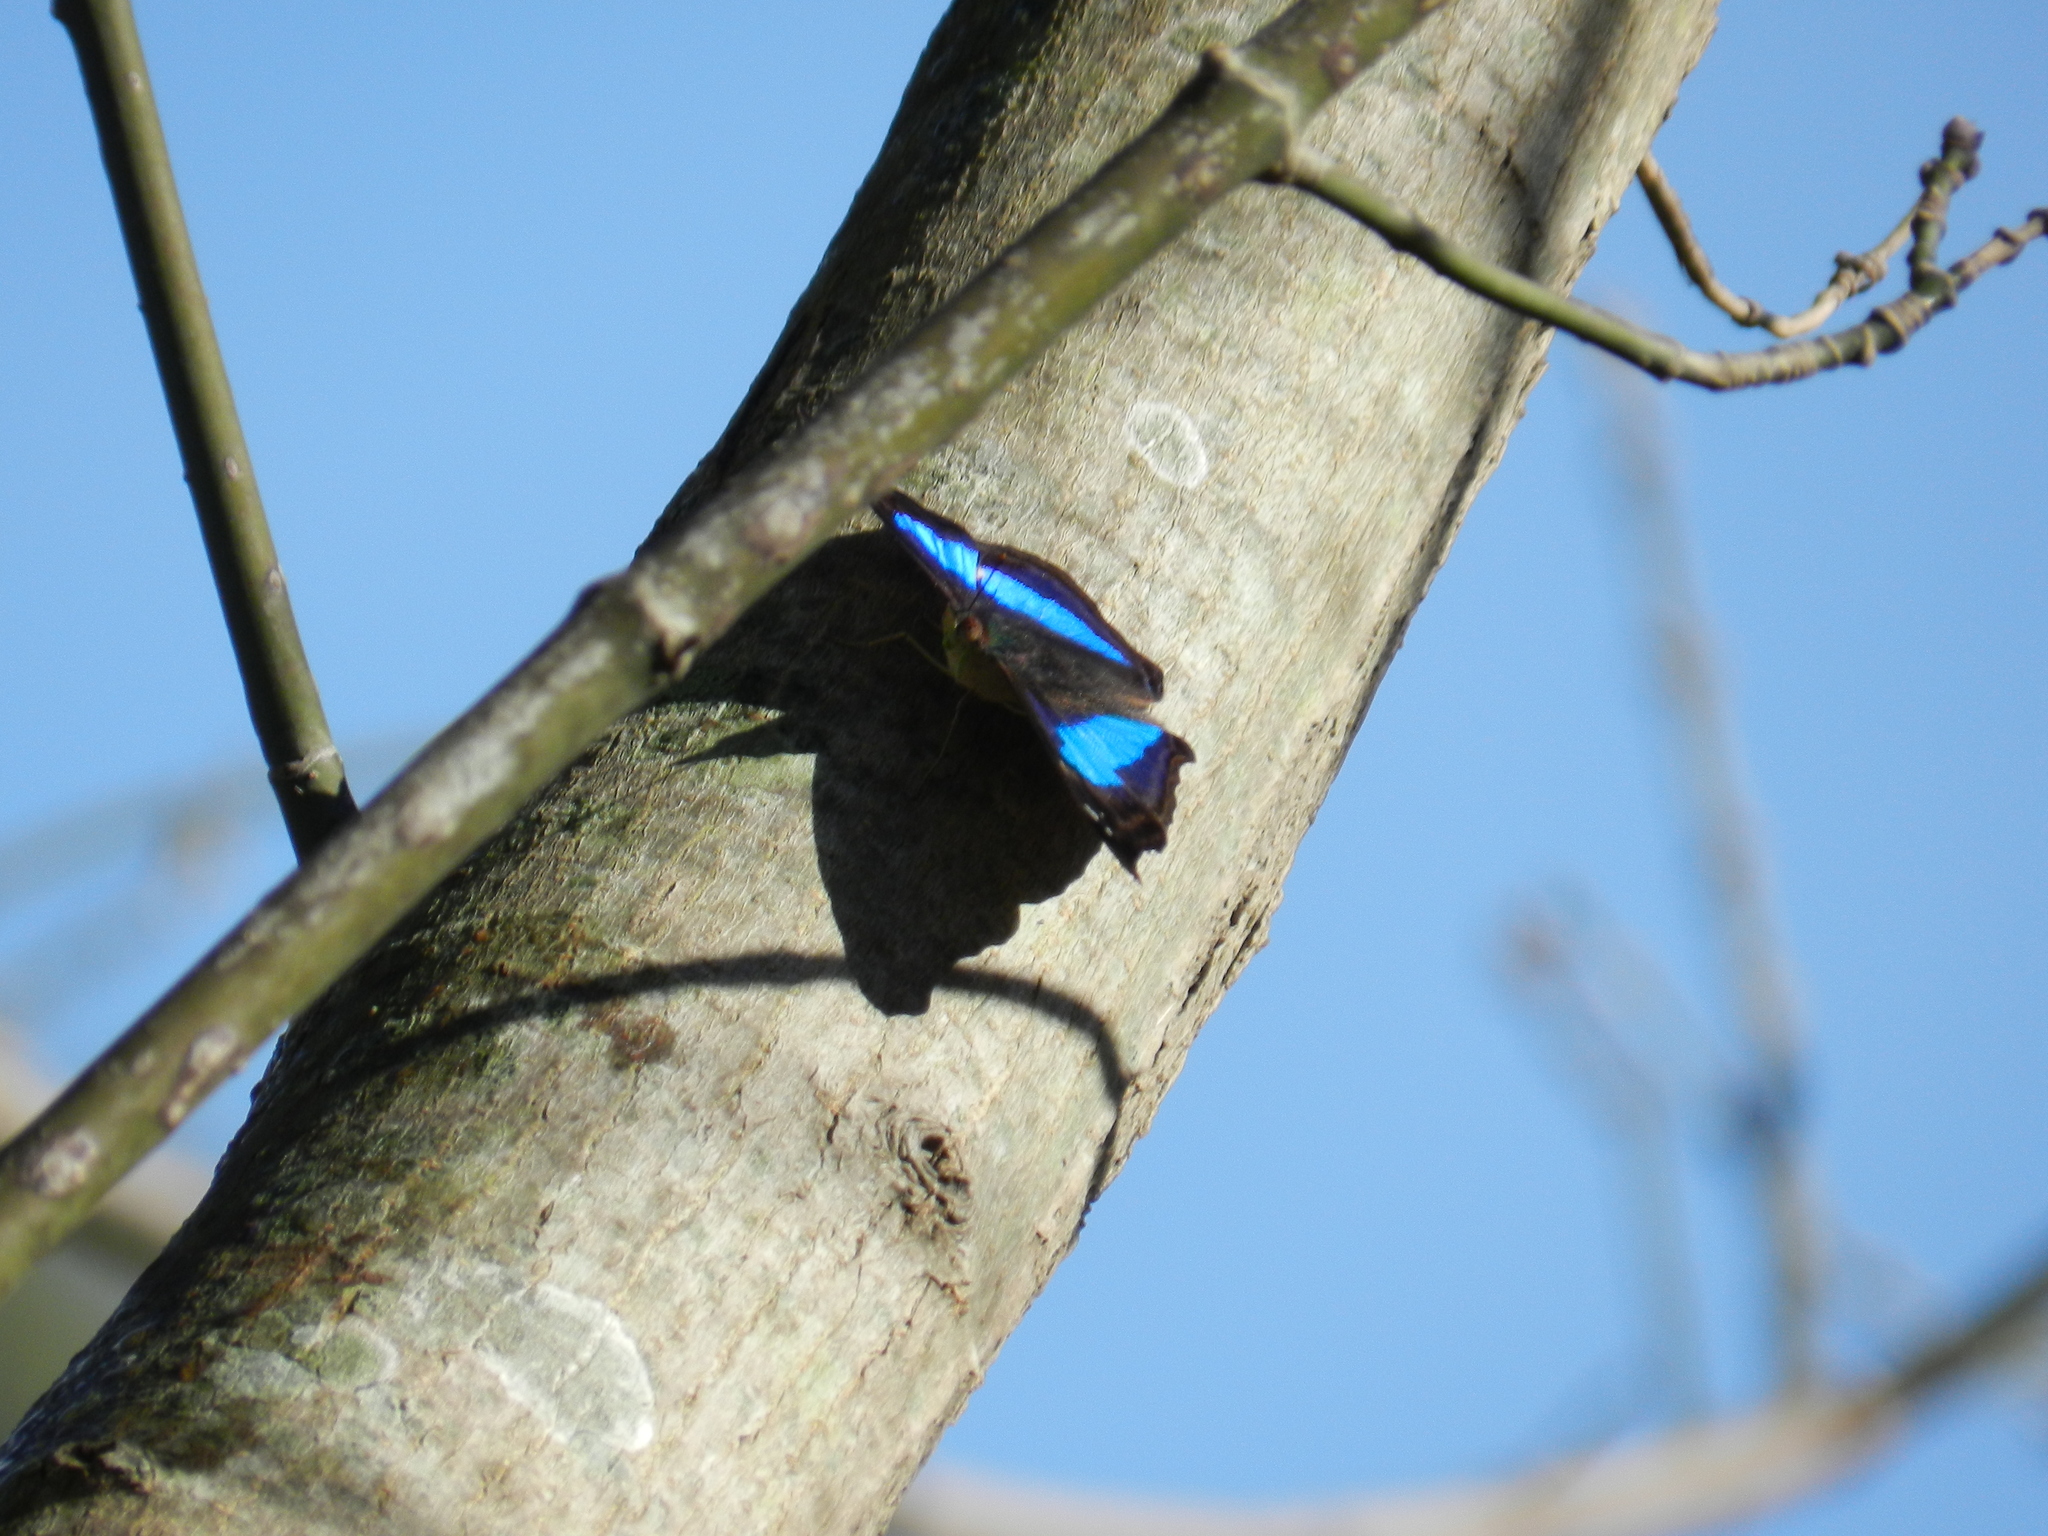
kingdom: Animalia
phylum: Arthropoda
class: Insecta
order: Lepidoptera
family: Nymphalidae
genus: Doxocopa
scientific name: Doxocopa laurentia
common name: Turquoise emperor
